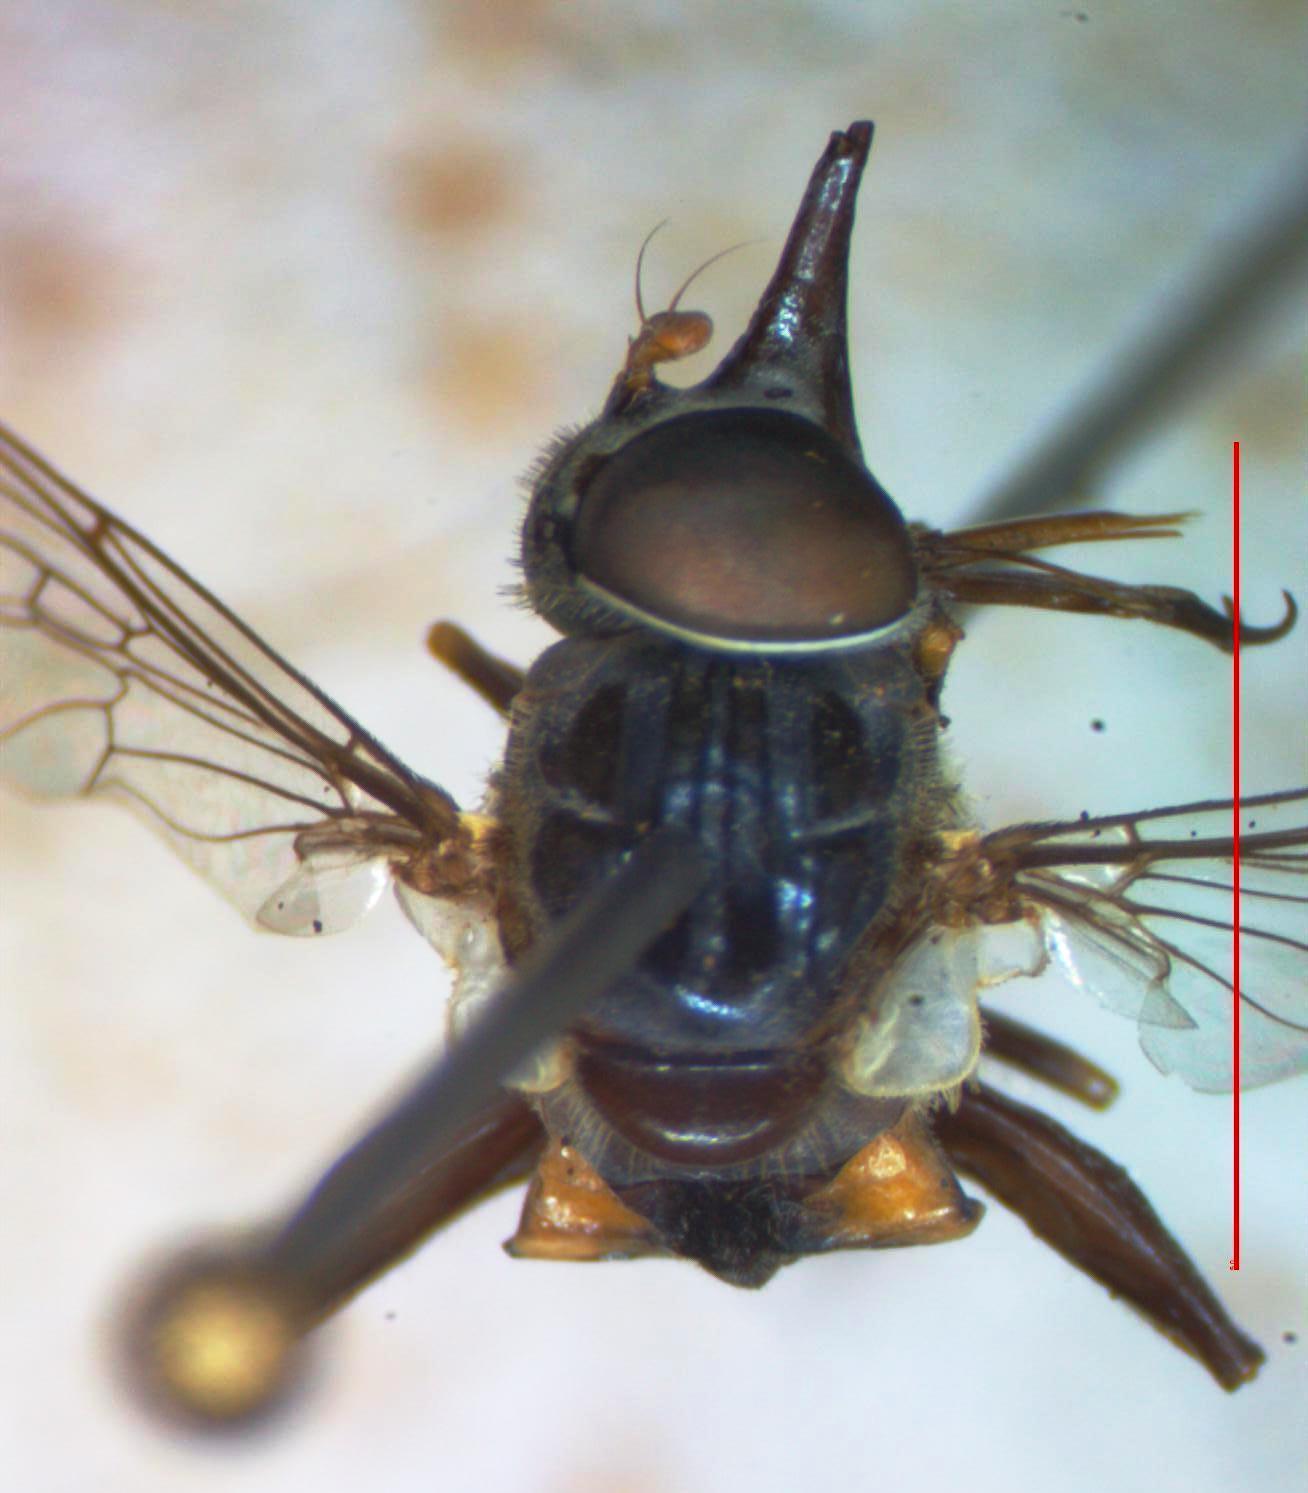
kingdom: Animalia
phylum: Arthropoda
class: Insecta
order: Diptera
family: Syrphidae
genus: Lycastrirhyncha
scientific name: Lycastrirhyncha nitens
